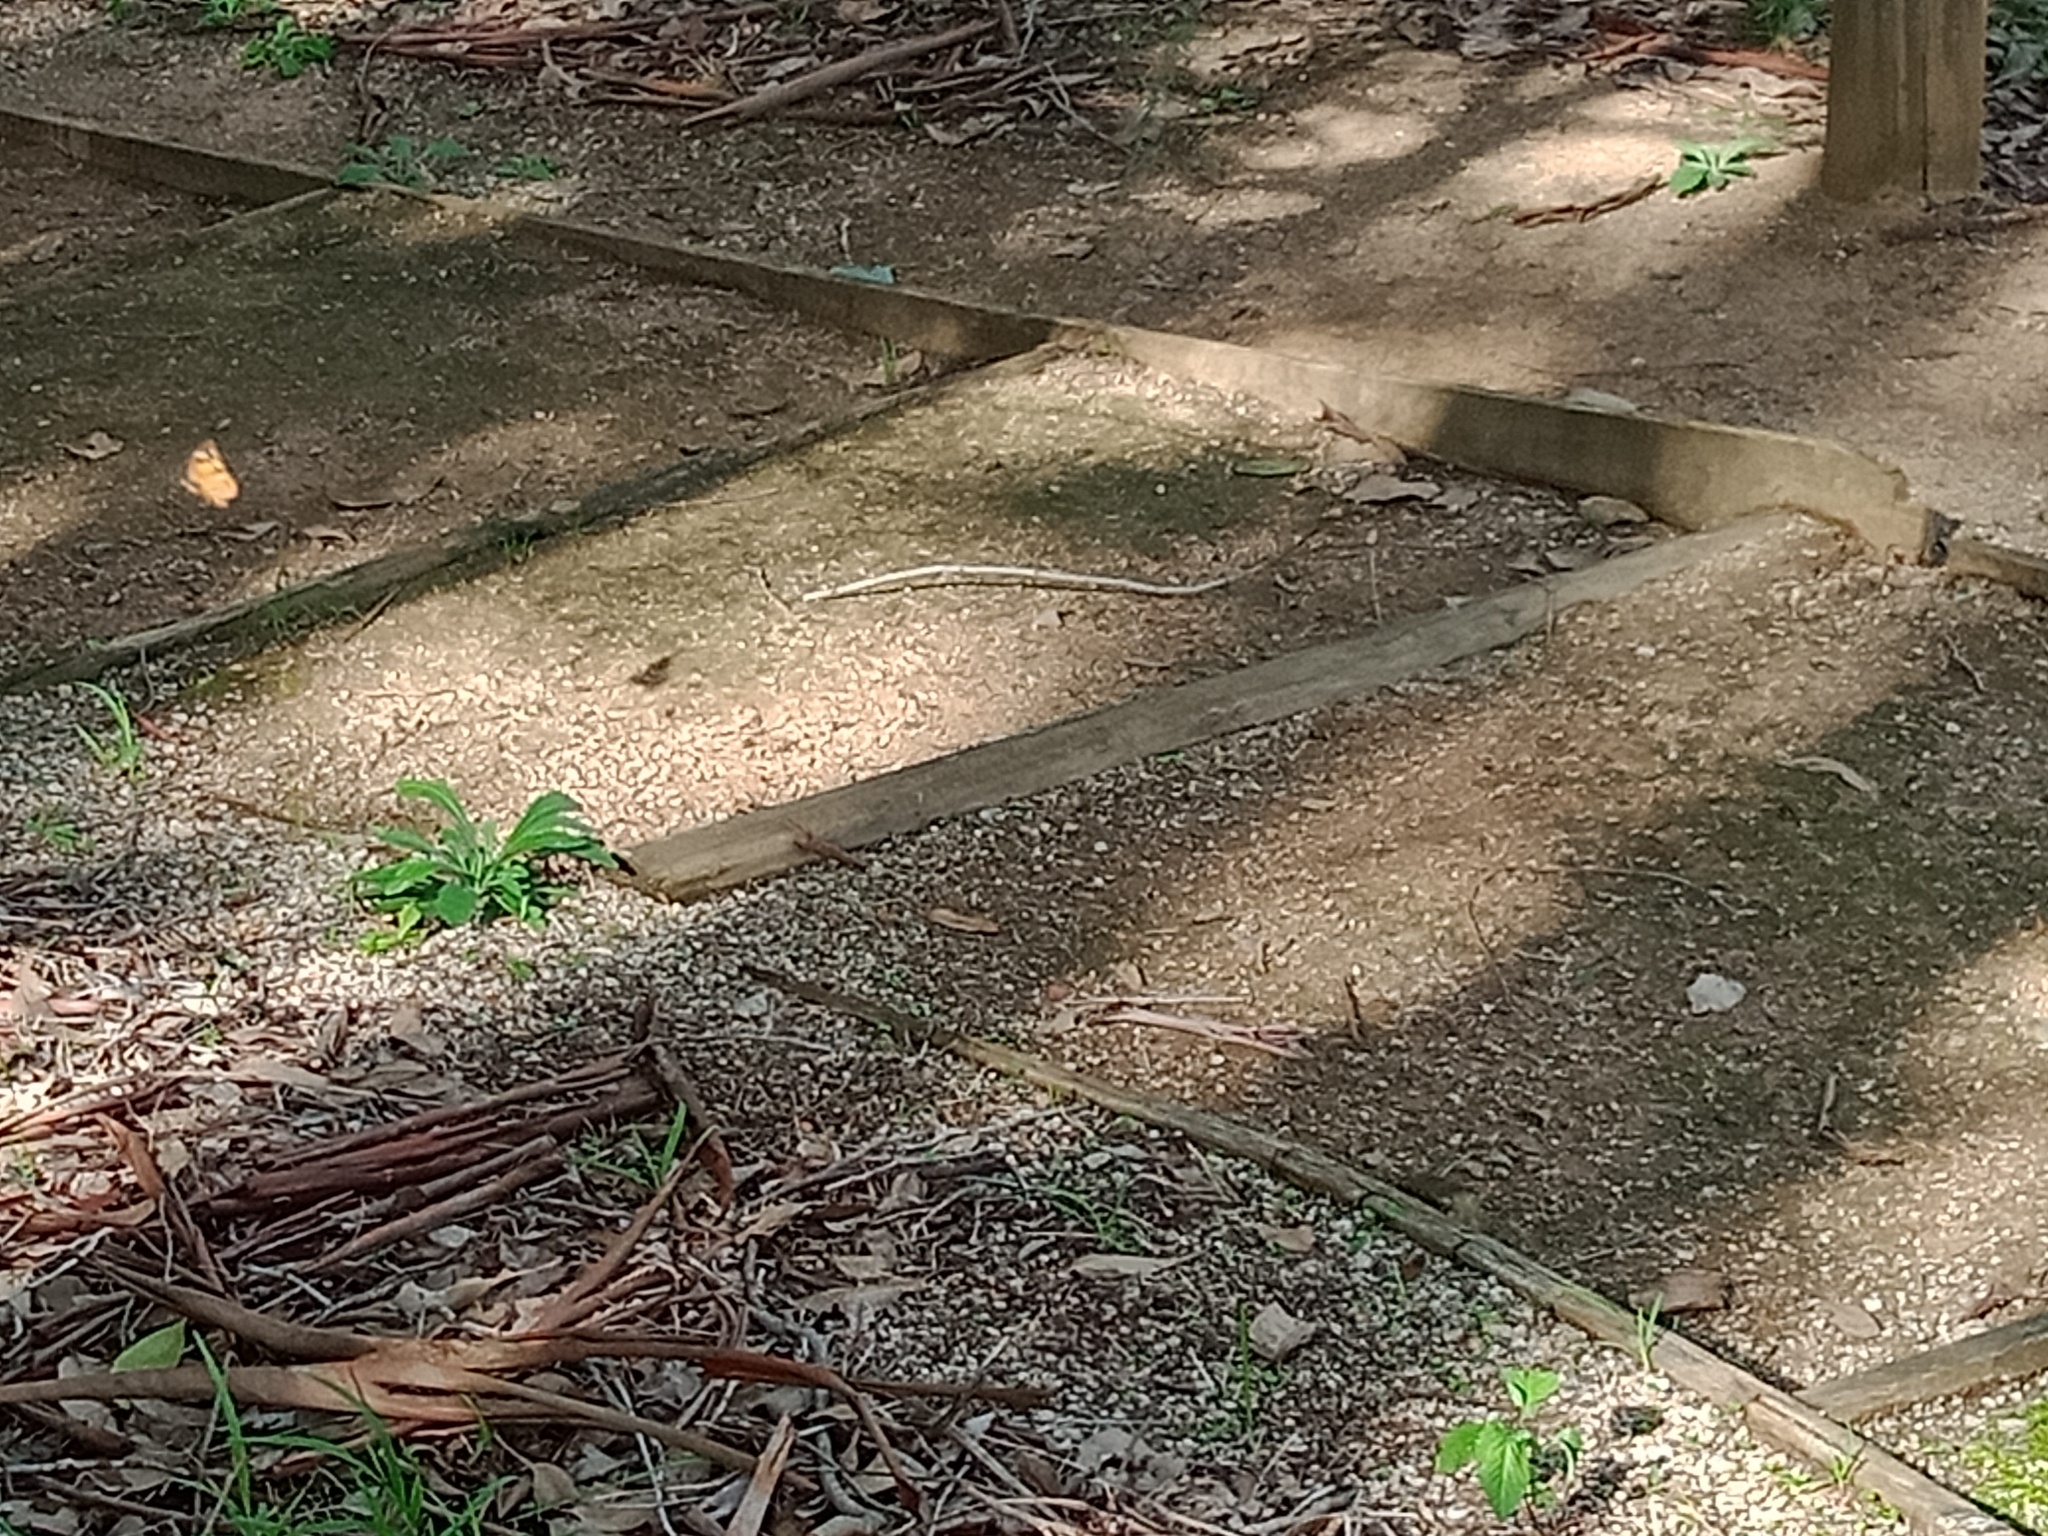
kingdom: Animalia
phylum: Arthropoda
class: Insecta
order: Lepidoptera
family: Nymphalidae
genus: Heteronympha
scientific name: Heteronympha merope
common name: Common brown
